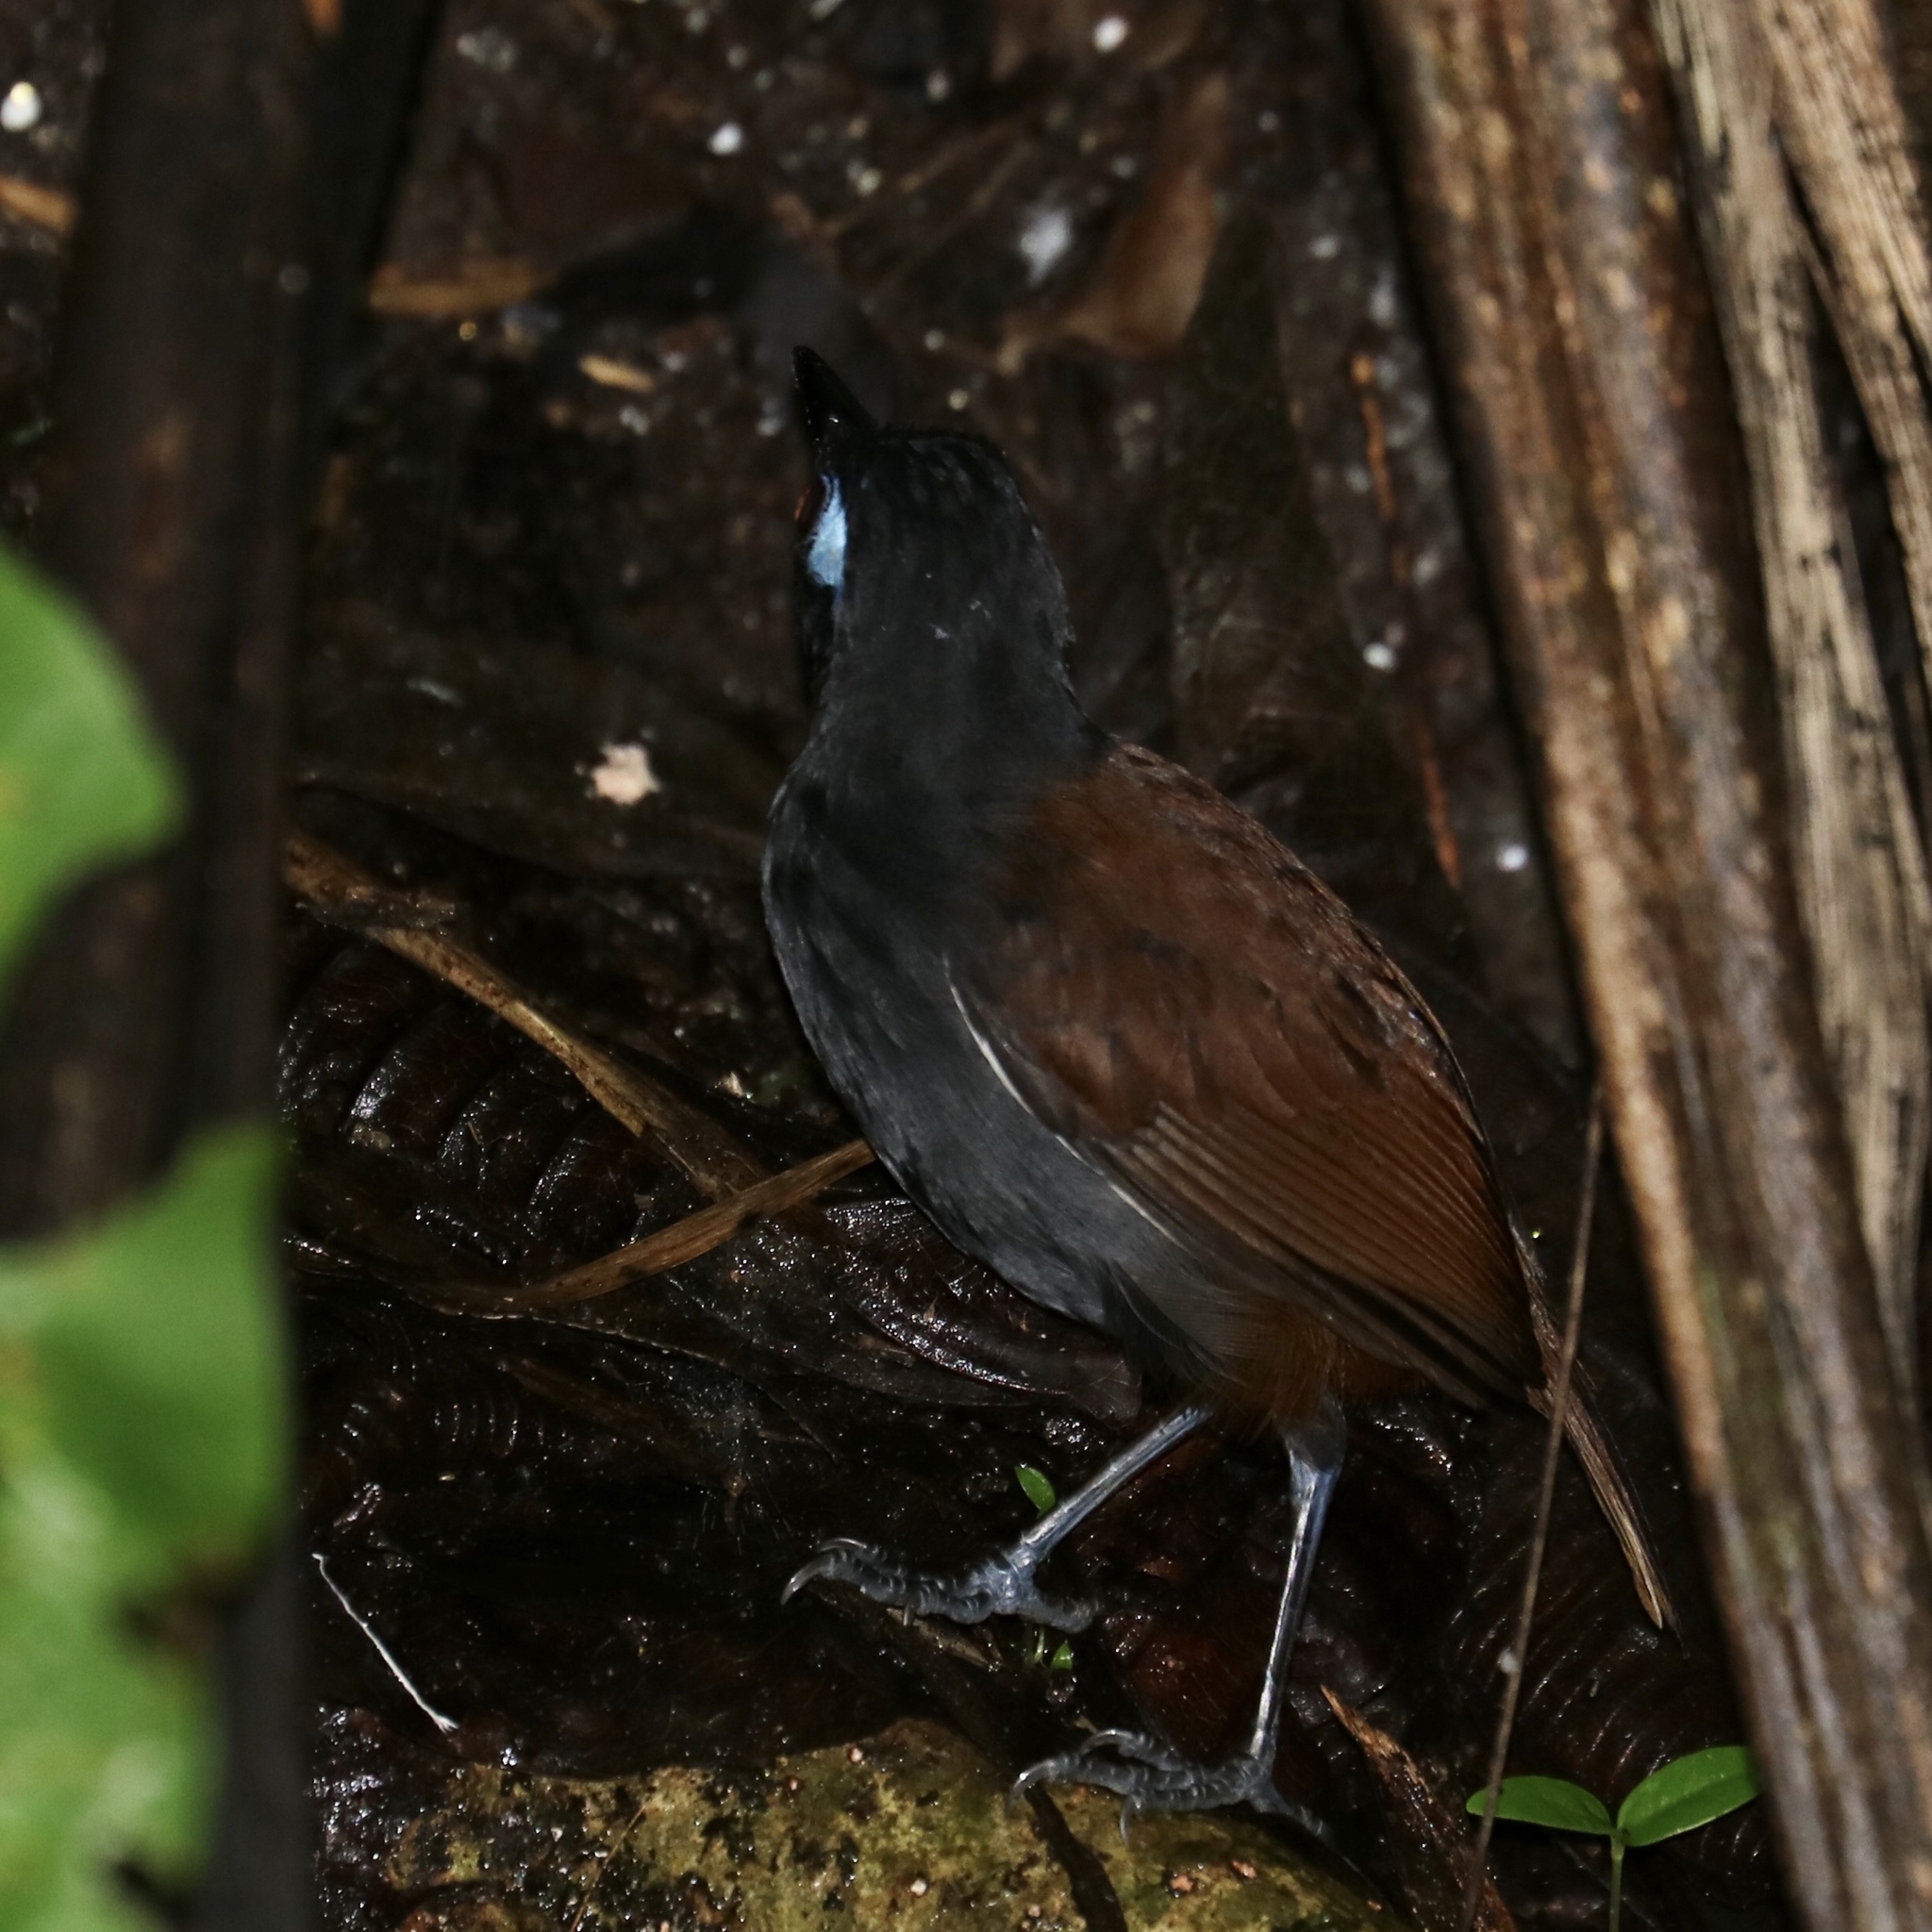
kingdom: Animalia
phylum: Chordata
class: Aves
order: Passeriformes
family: Thamnophilidae
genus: Myrmeciza
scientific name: Myrmeciza exsul
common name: Chestnut-backed antbird
